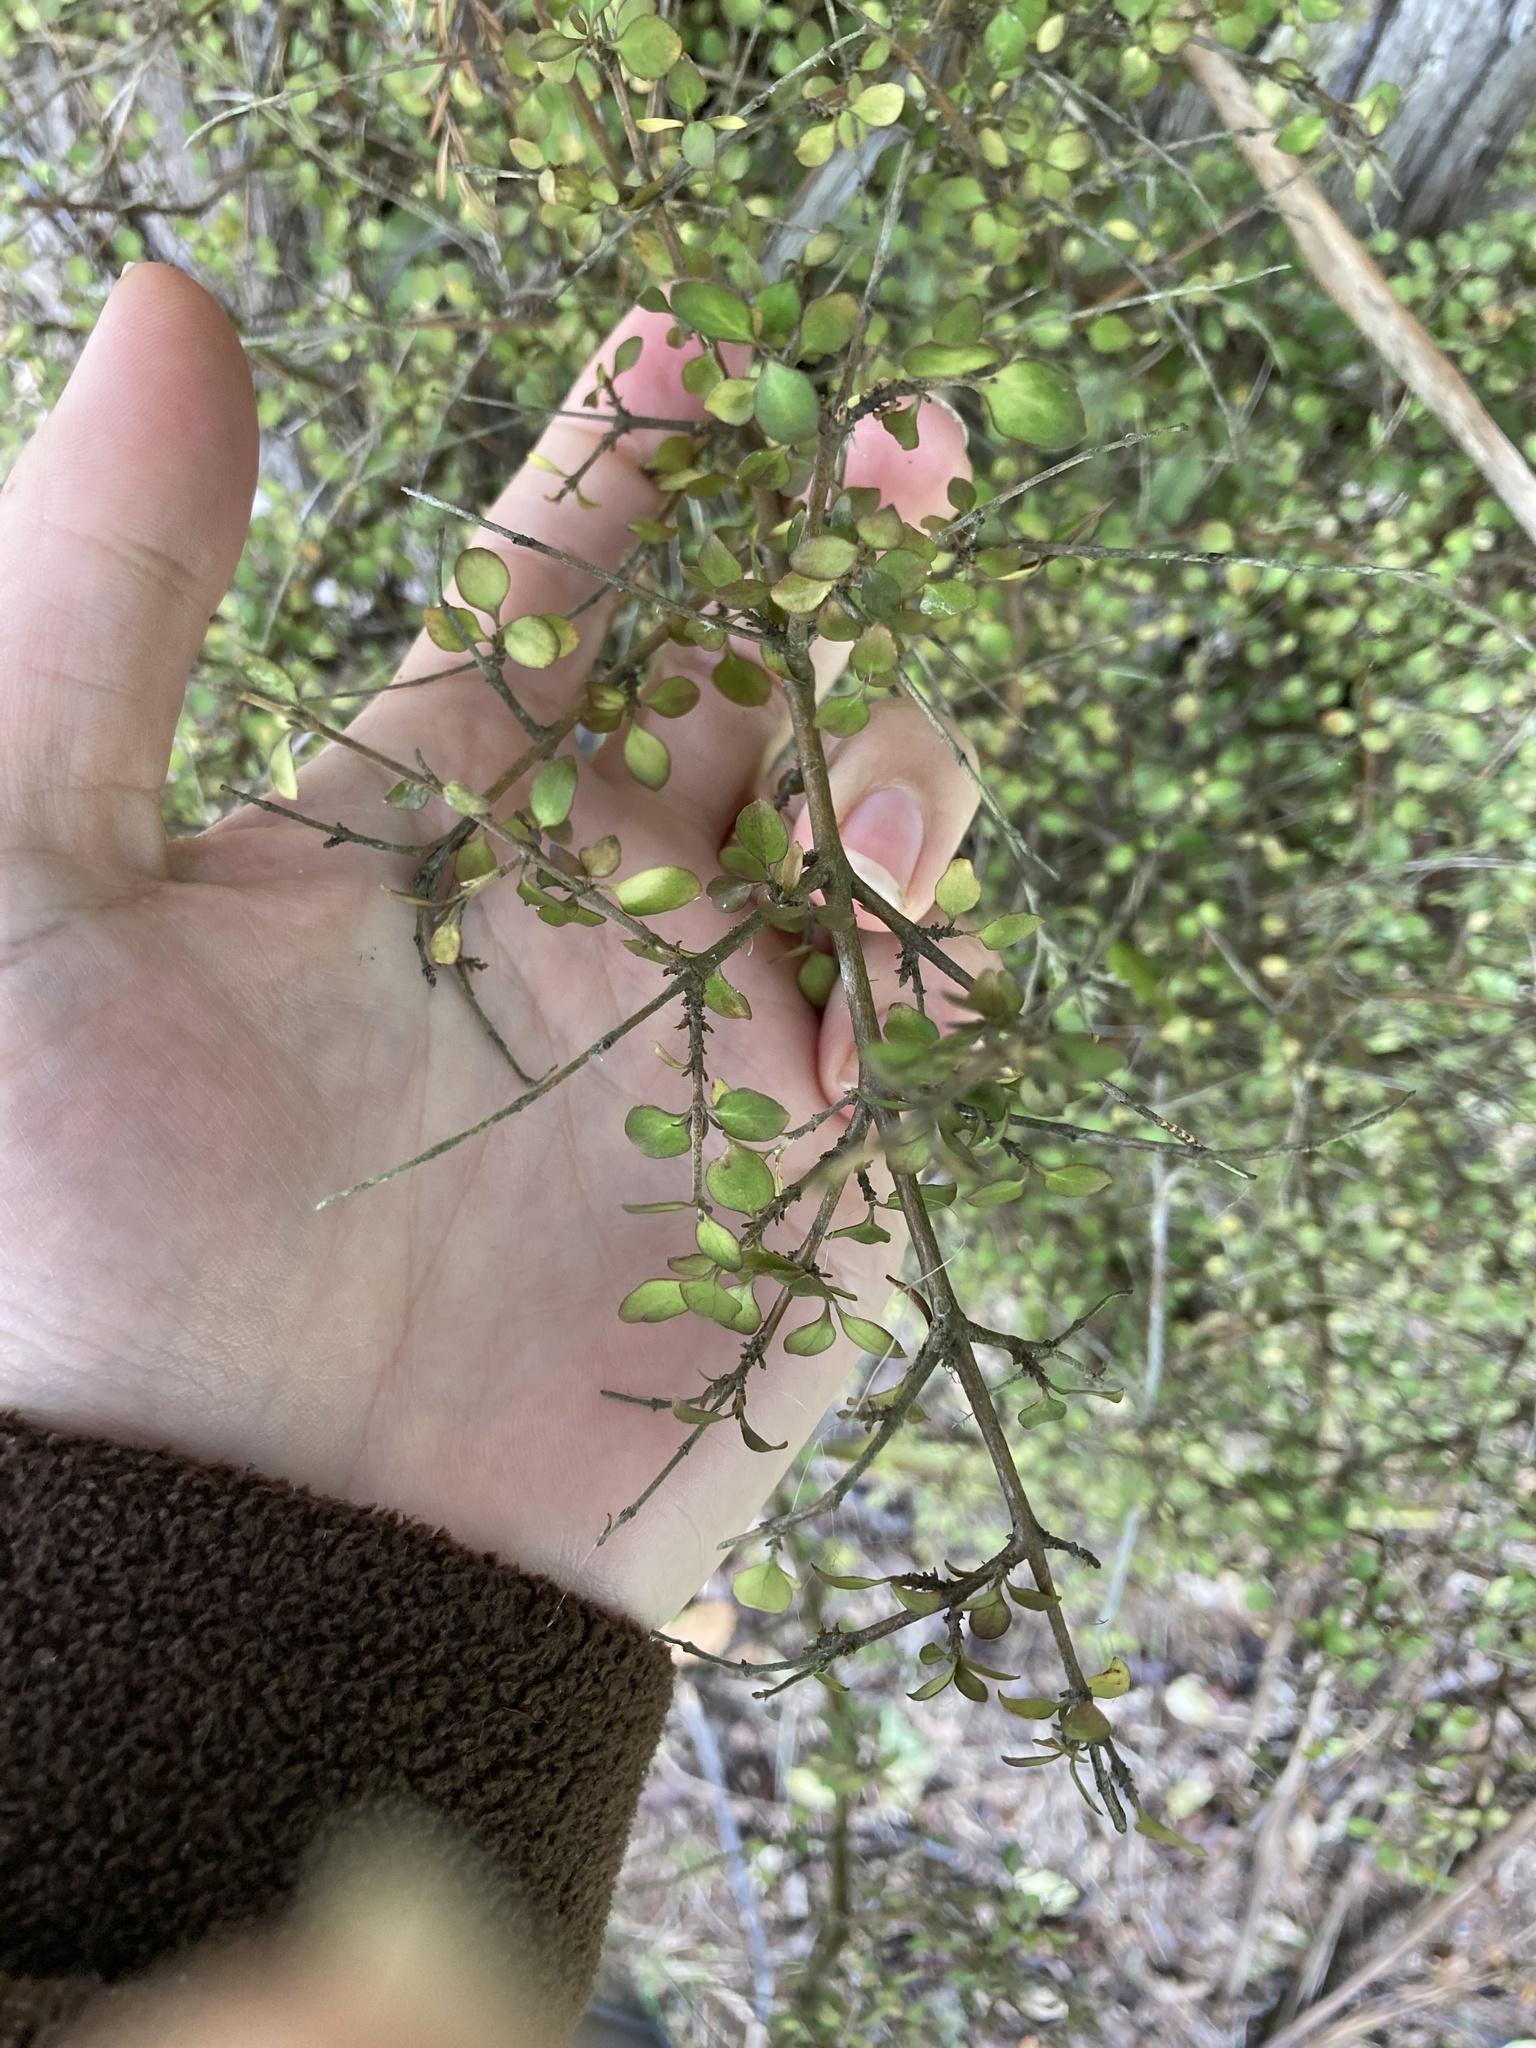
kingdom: Plantae
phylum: Tracheophyta
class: Magnoliopsida
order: Gentianales
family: Rubiaceae
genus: Coprosma
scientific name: Coprosma rhamnoides
